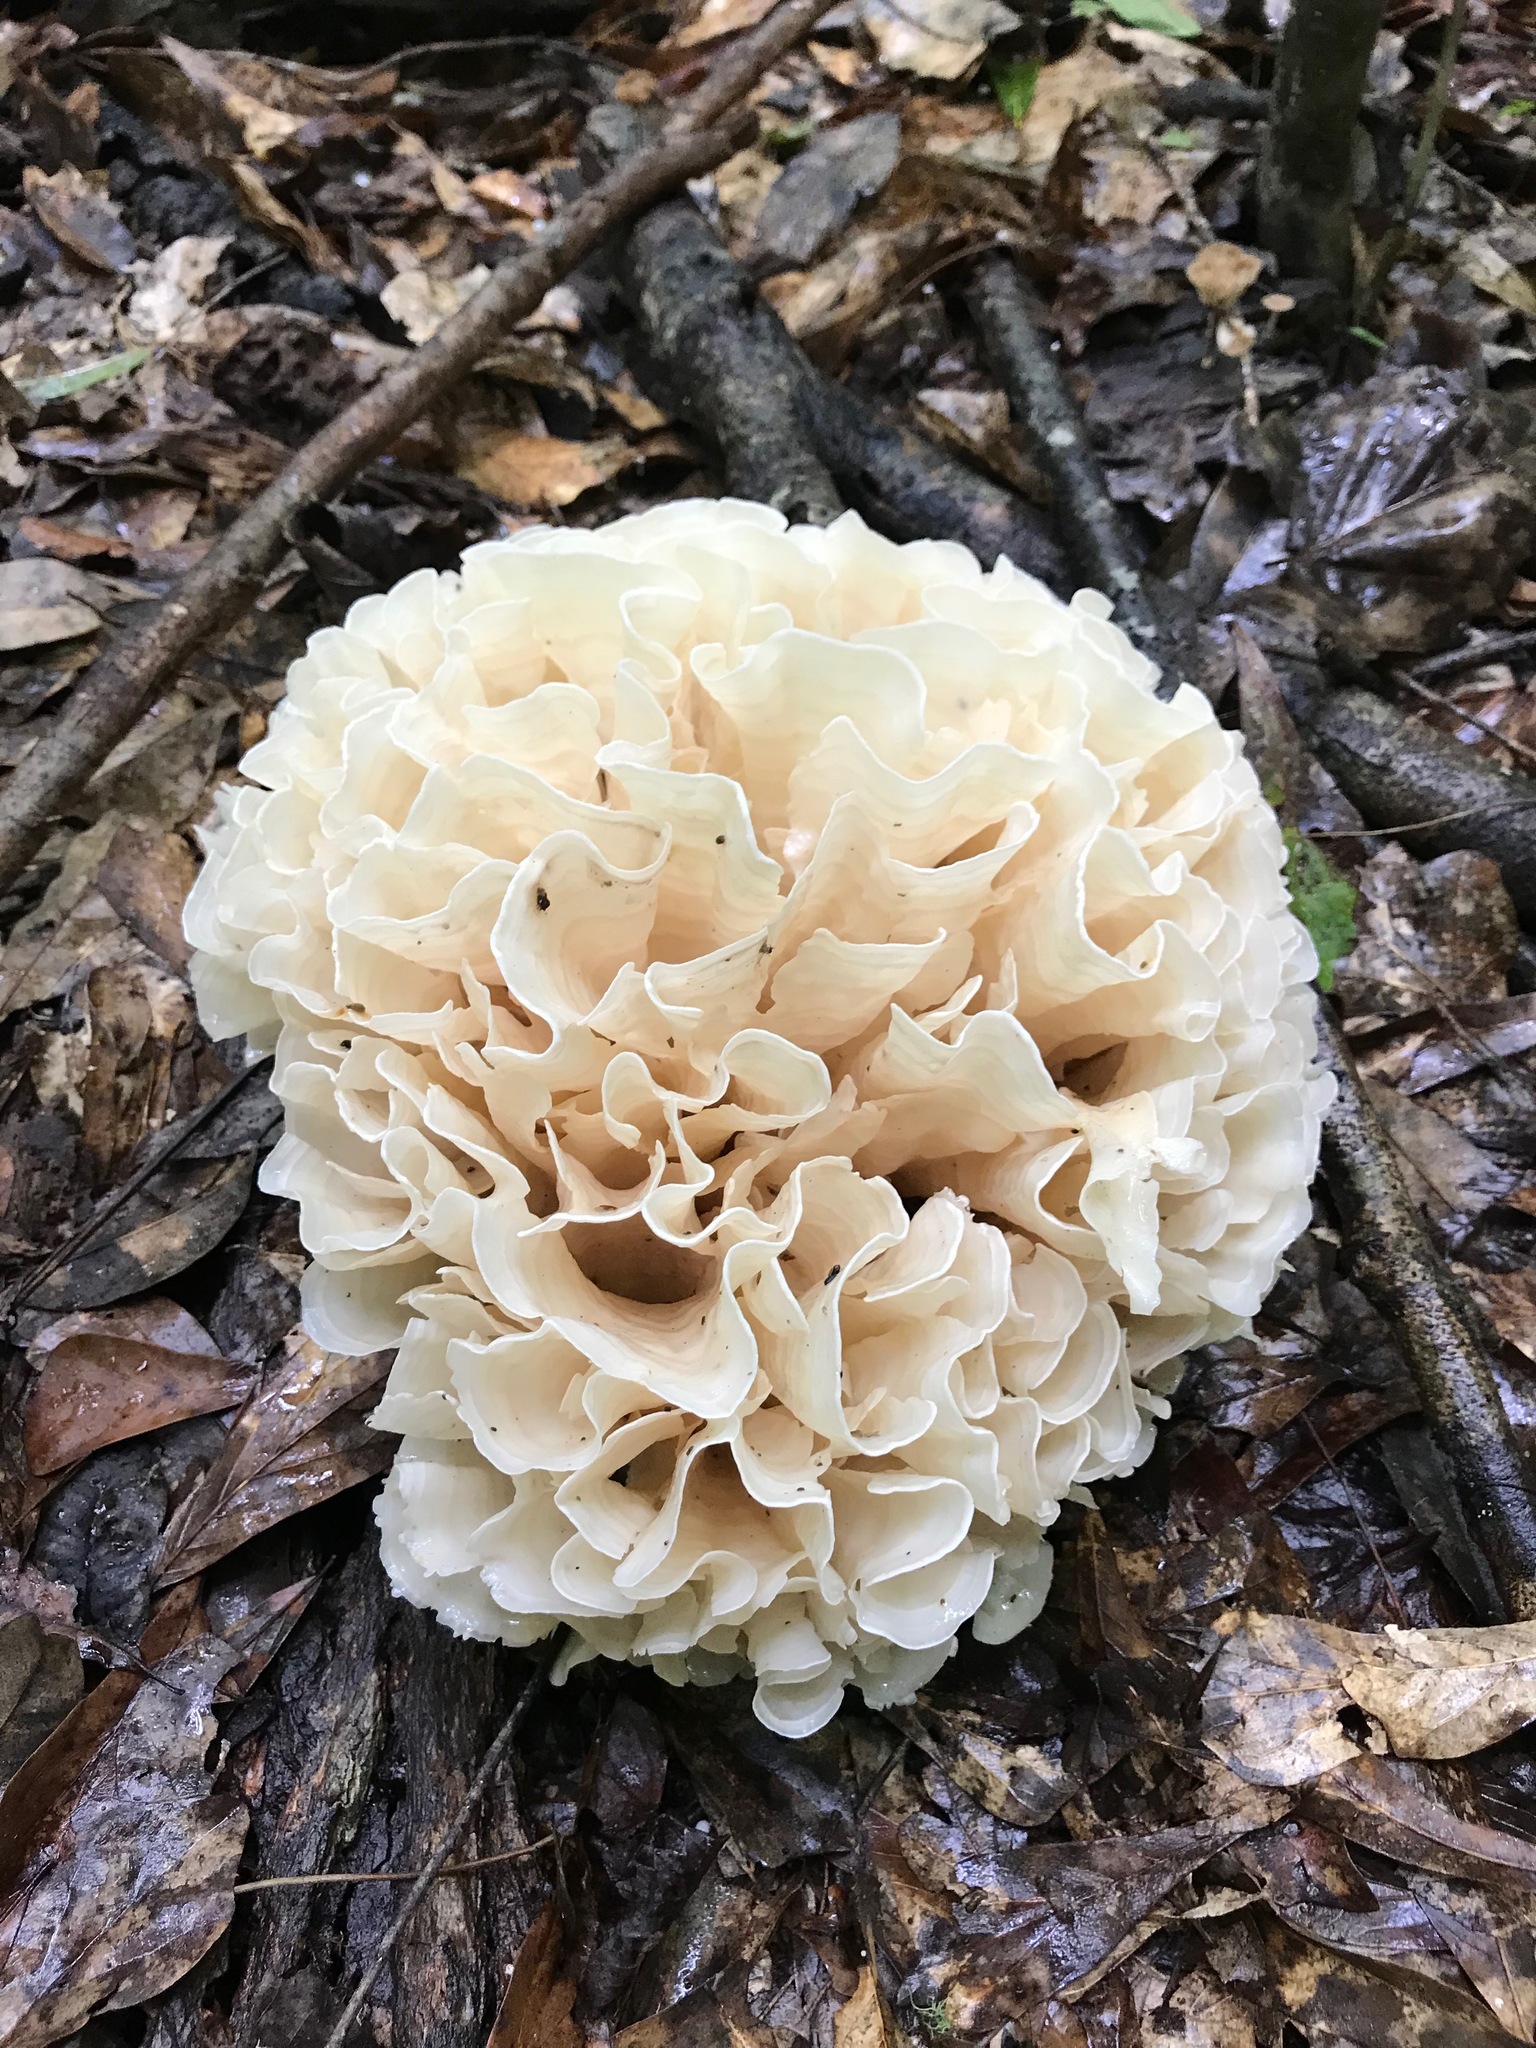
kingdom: Fungi
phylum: Basidiomycota
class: Tremellomycetes
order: Tremellales
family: Tremellaceae
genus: Tremella
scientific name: Tremella fuciformis
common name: Snow fungus
